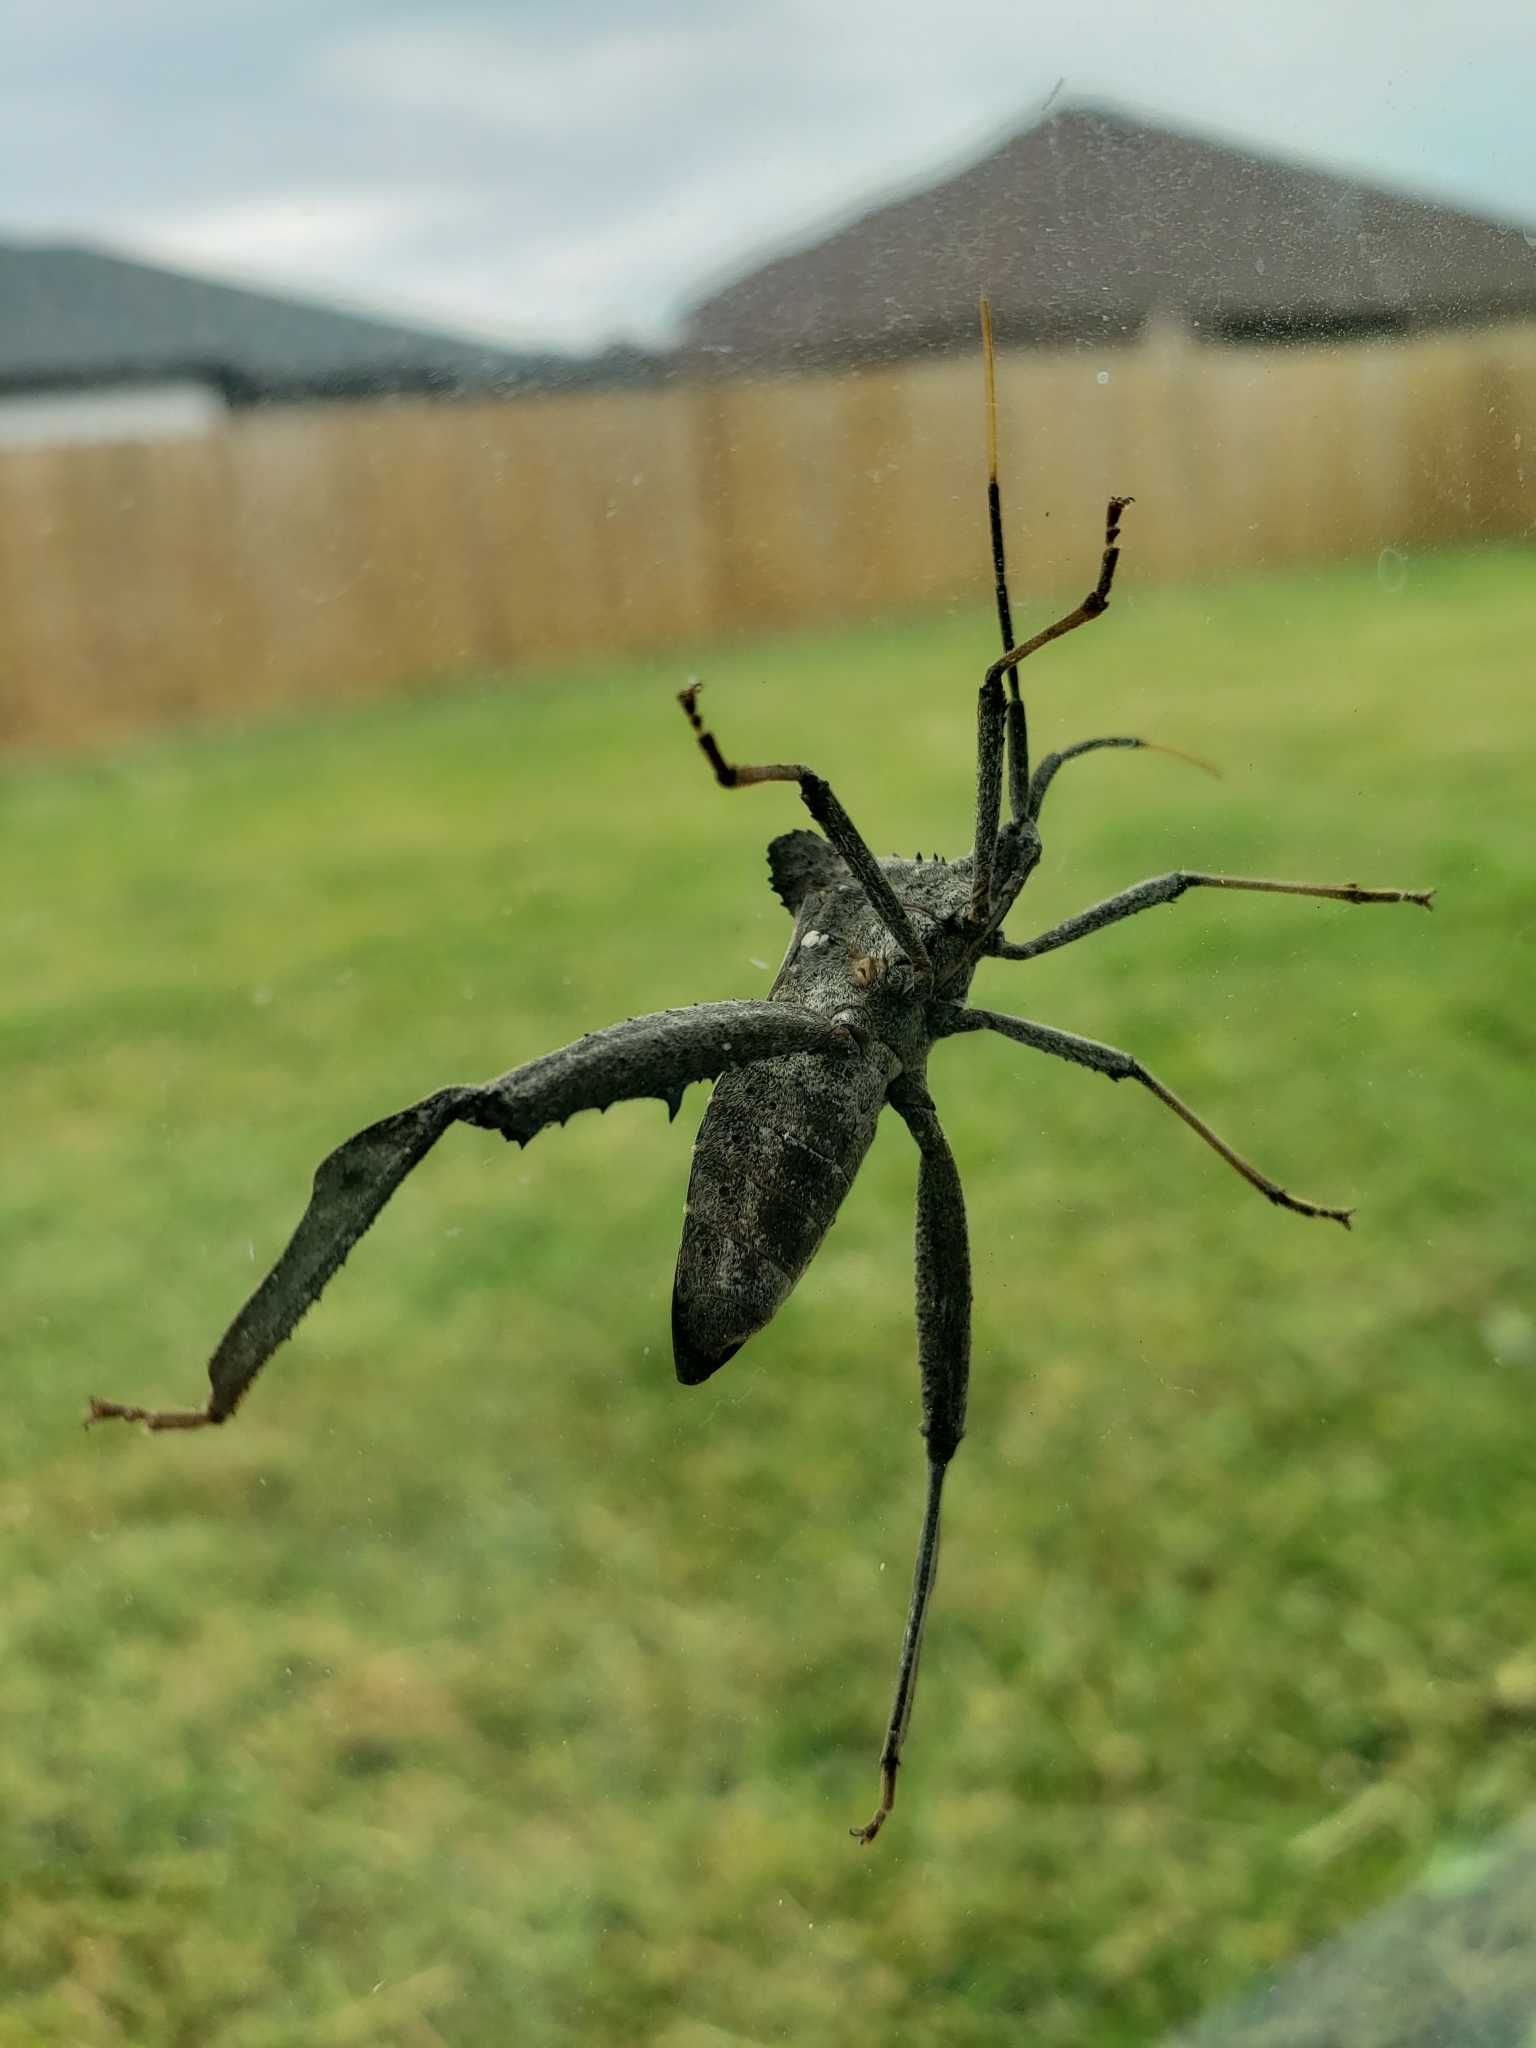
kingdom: Animalia
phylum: Arthropoda
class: Insecta
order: Hemiptera
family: Coreidae
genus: Acanthocephala
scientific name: Acanthocephala alata
